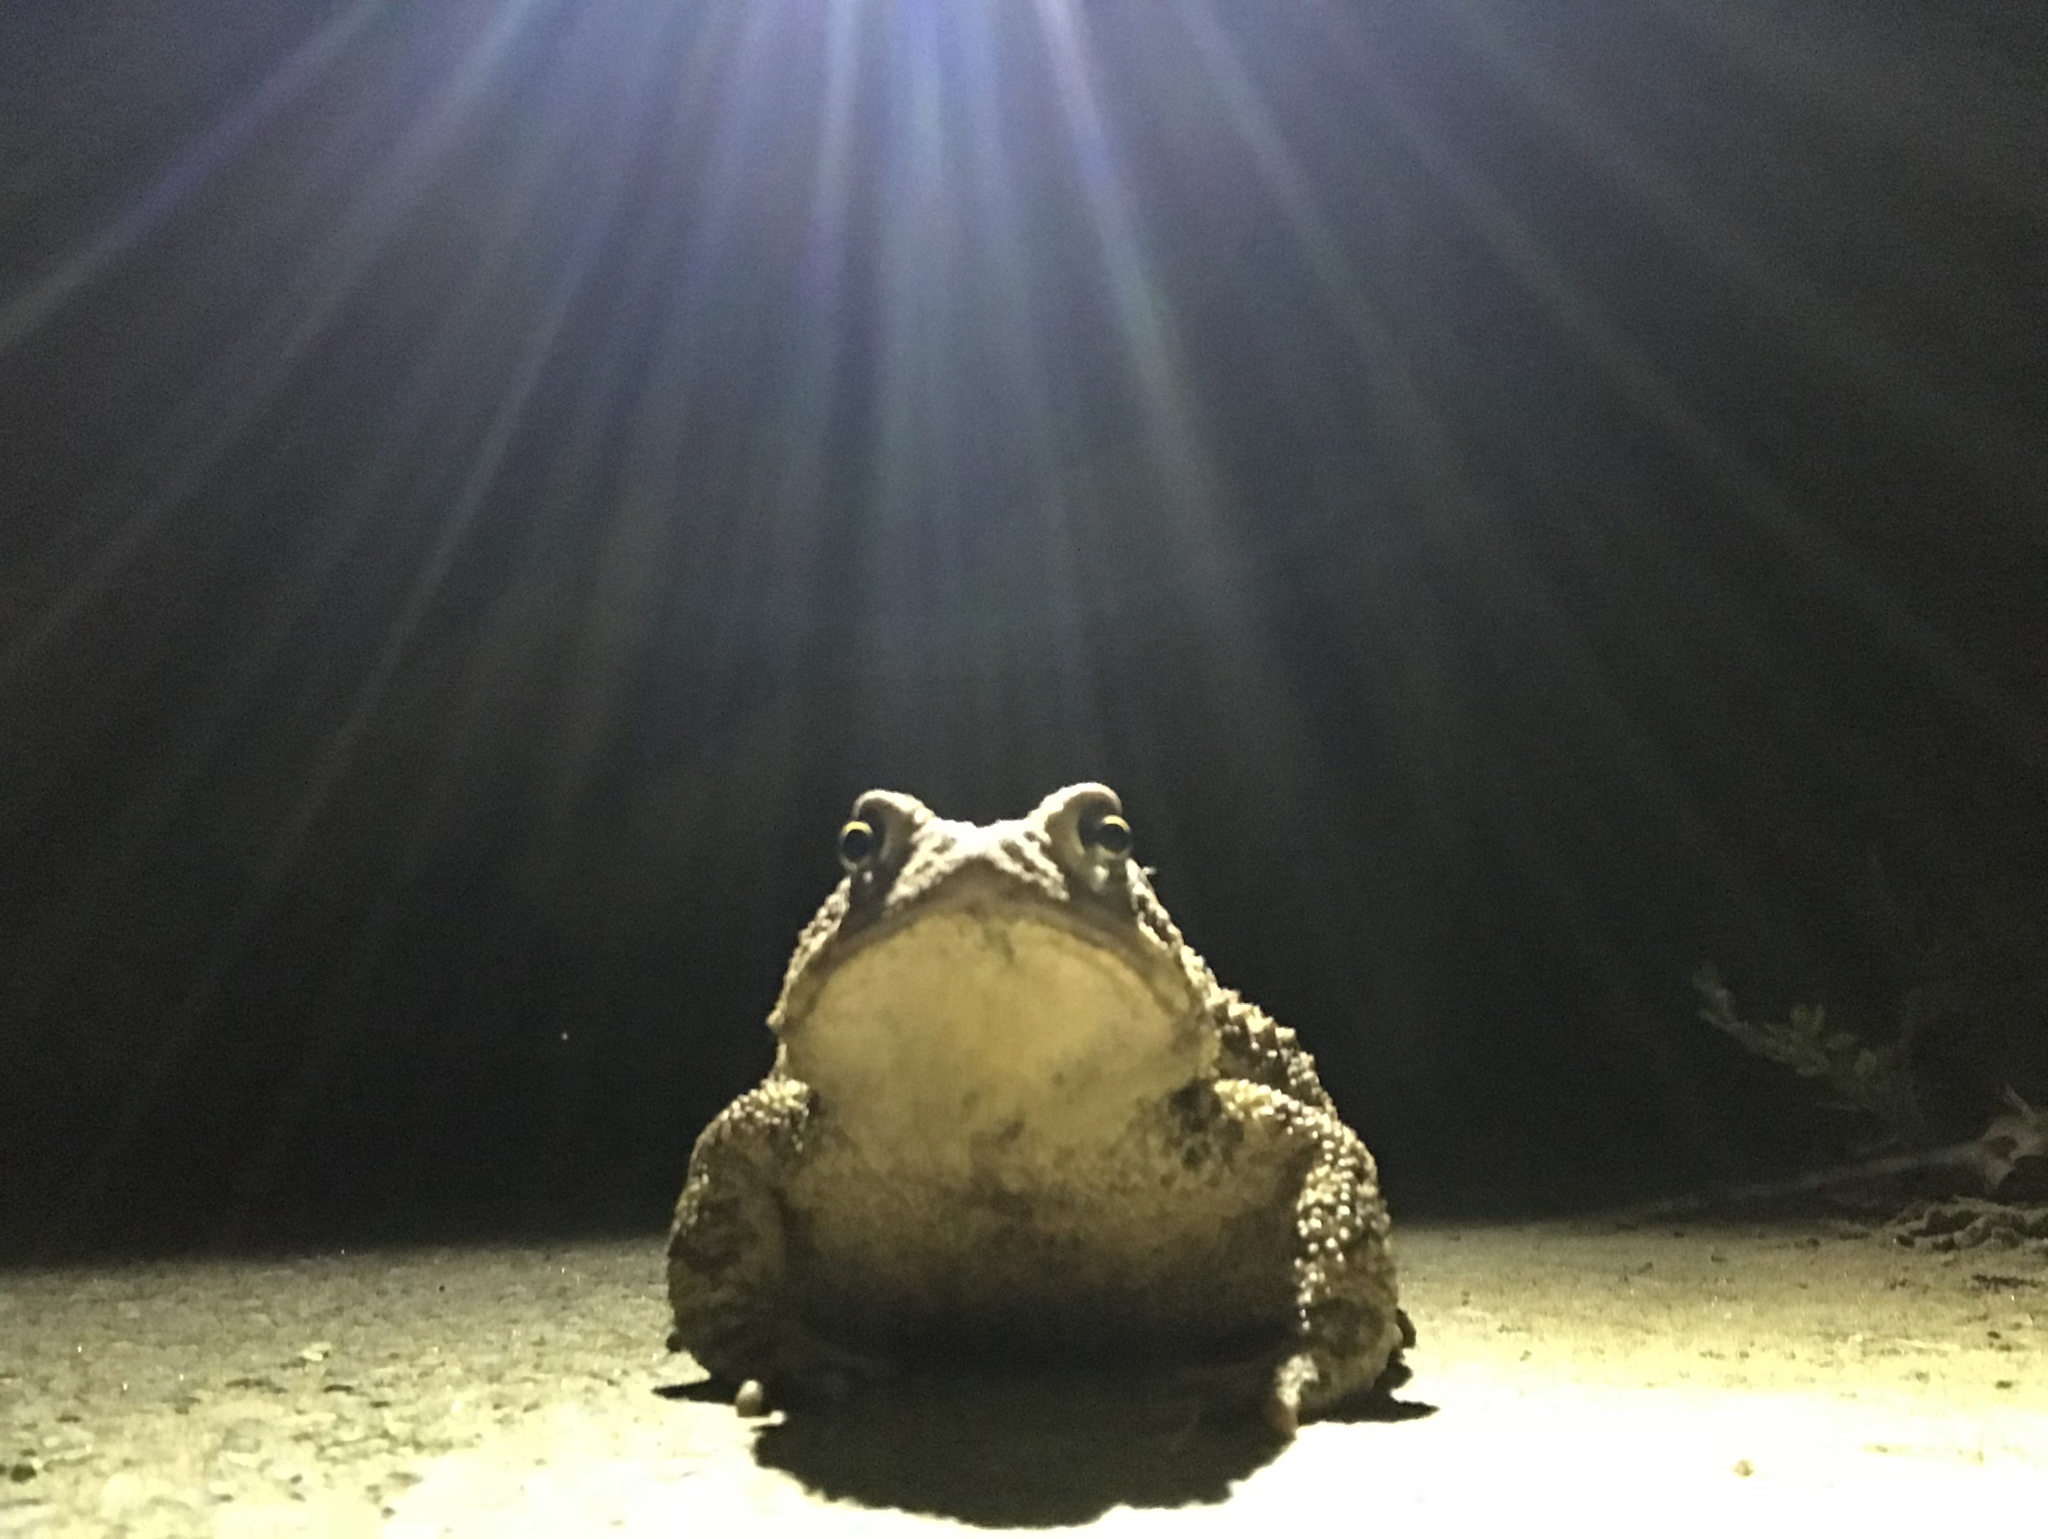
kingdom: Animalia
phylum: Chordata
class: Amphibia
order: Anura
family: Bufonidae
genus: Anaxyrus
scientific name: Anaxyrus americanus
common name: American toad
